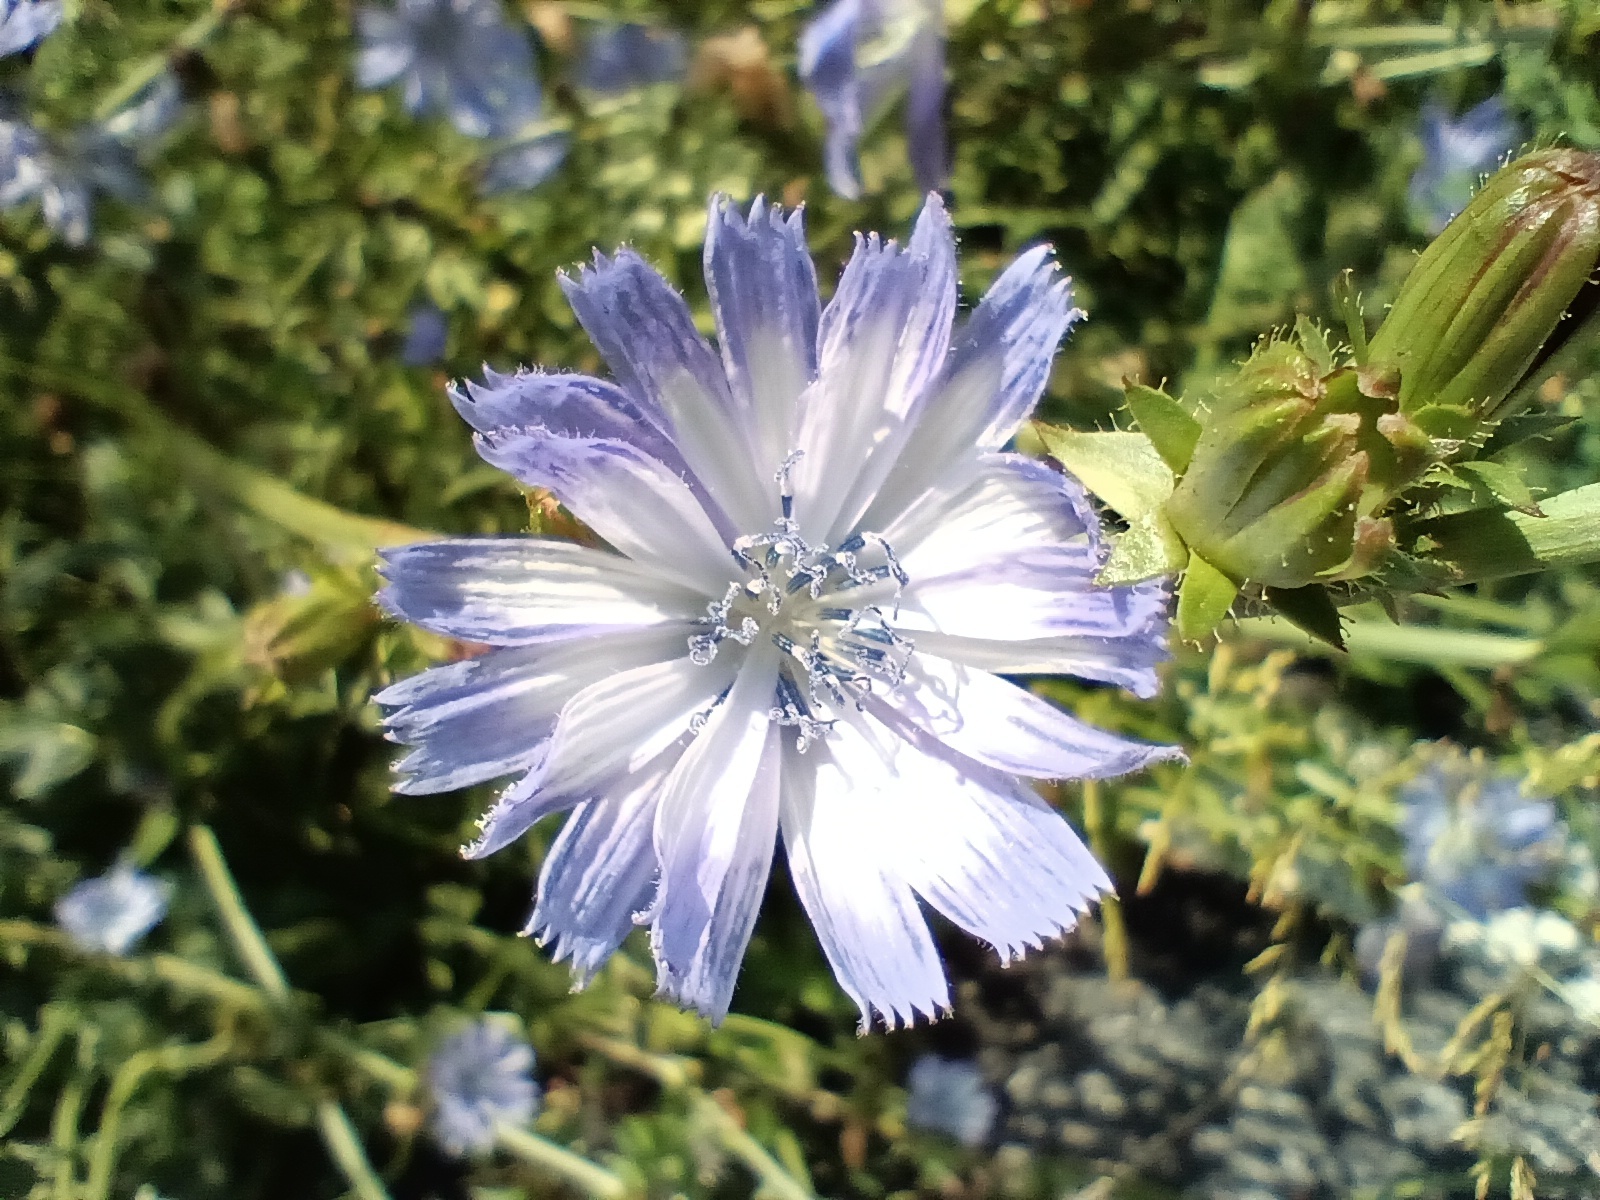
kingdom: Plantae
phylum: Tracheophyta
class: Magnoliopsida
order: Asterales
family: Asteraceae
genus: Cichorium
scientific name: Cichorium intybus
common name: Chicory
